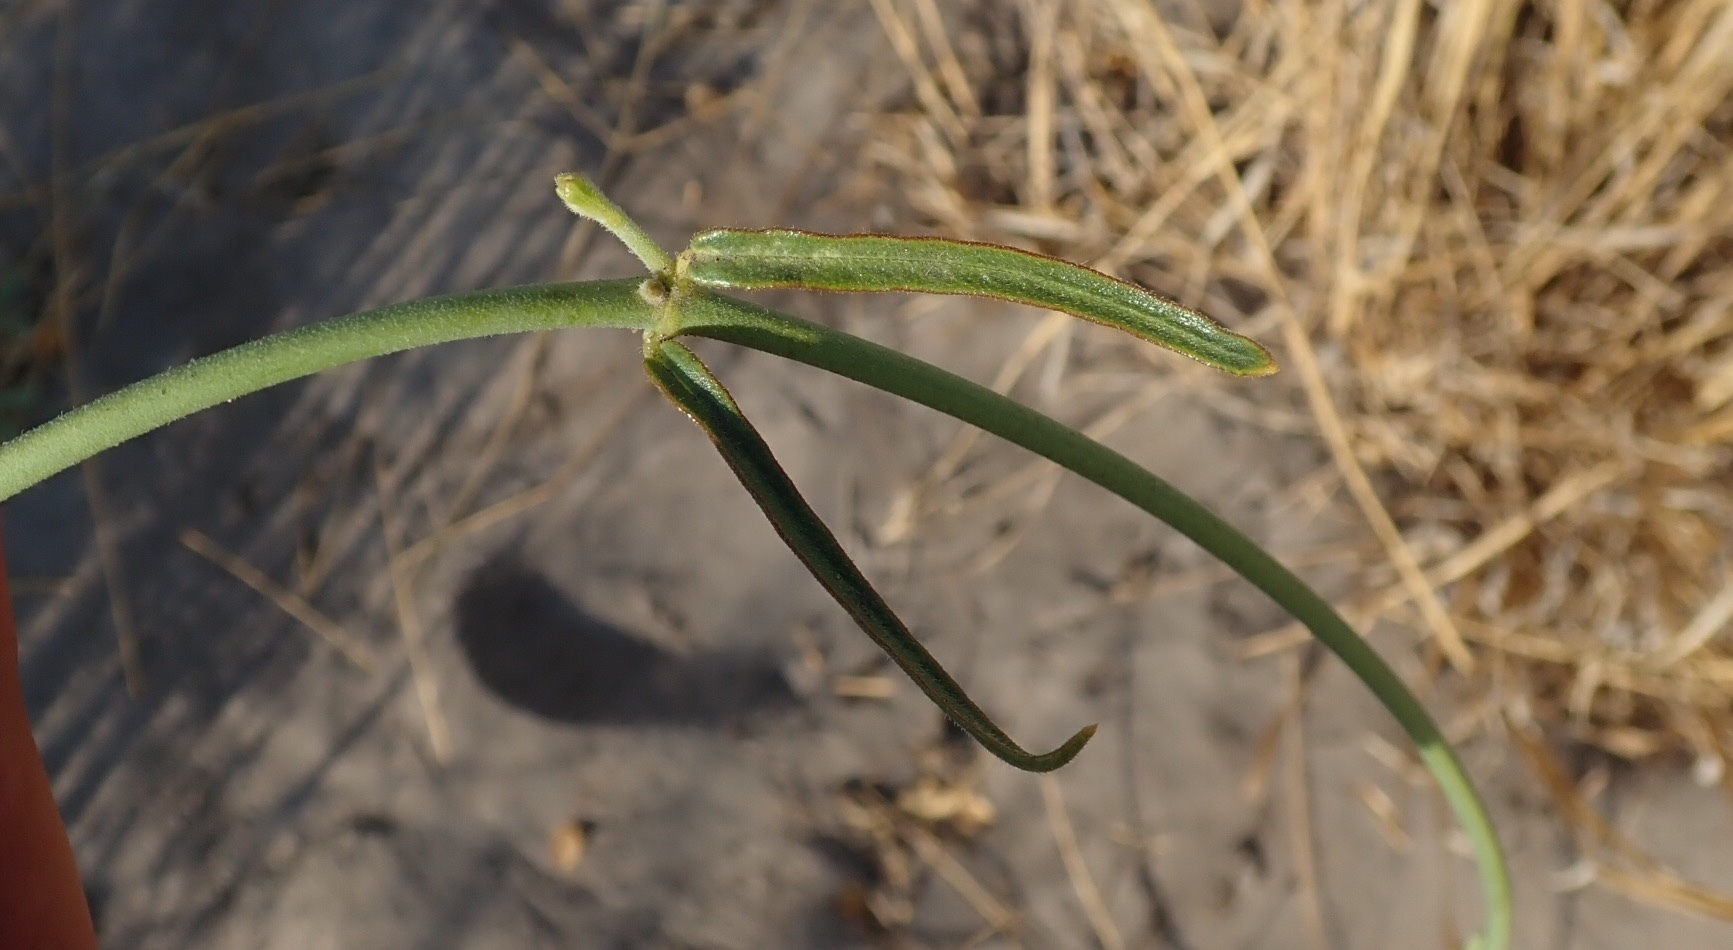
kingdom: Plantae
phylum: Tracheophyta
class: Magnoliopsida
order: Gentianales
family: Apocynaceae
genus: Orthanthera
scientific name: Orthanthera jasminiflora
